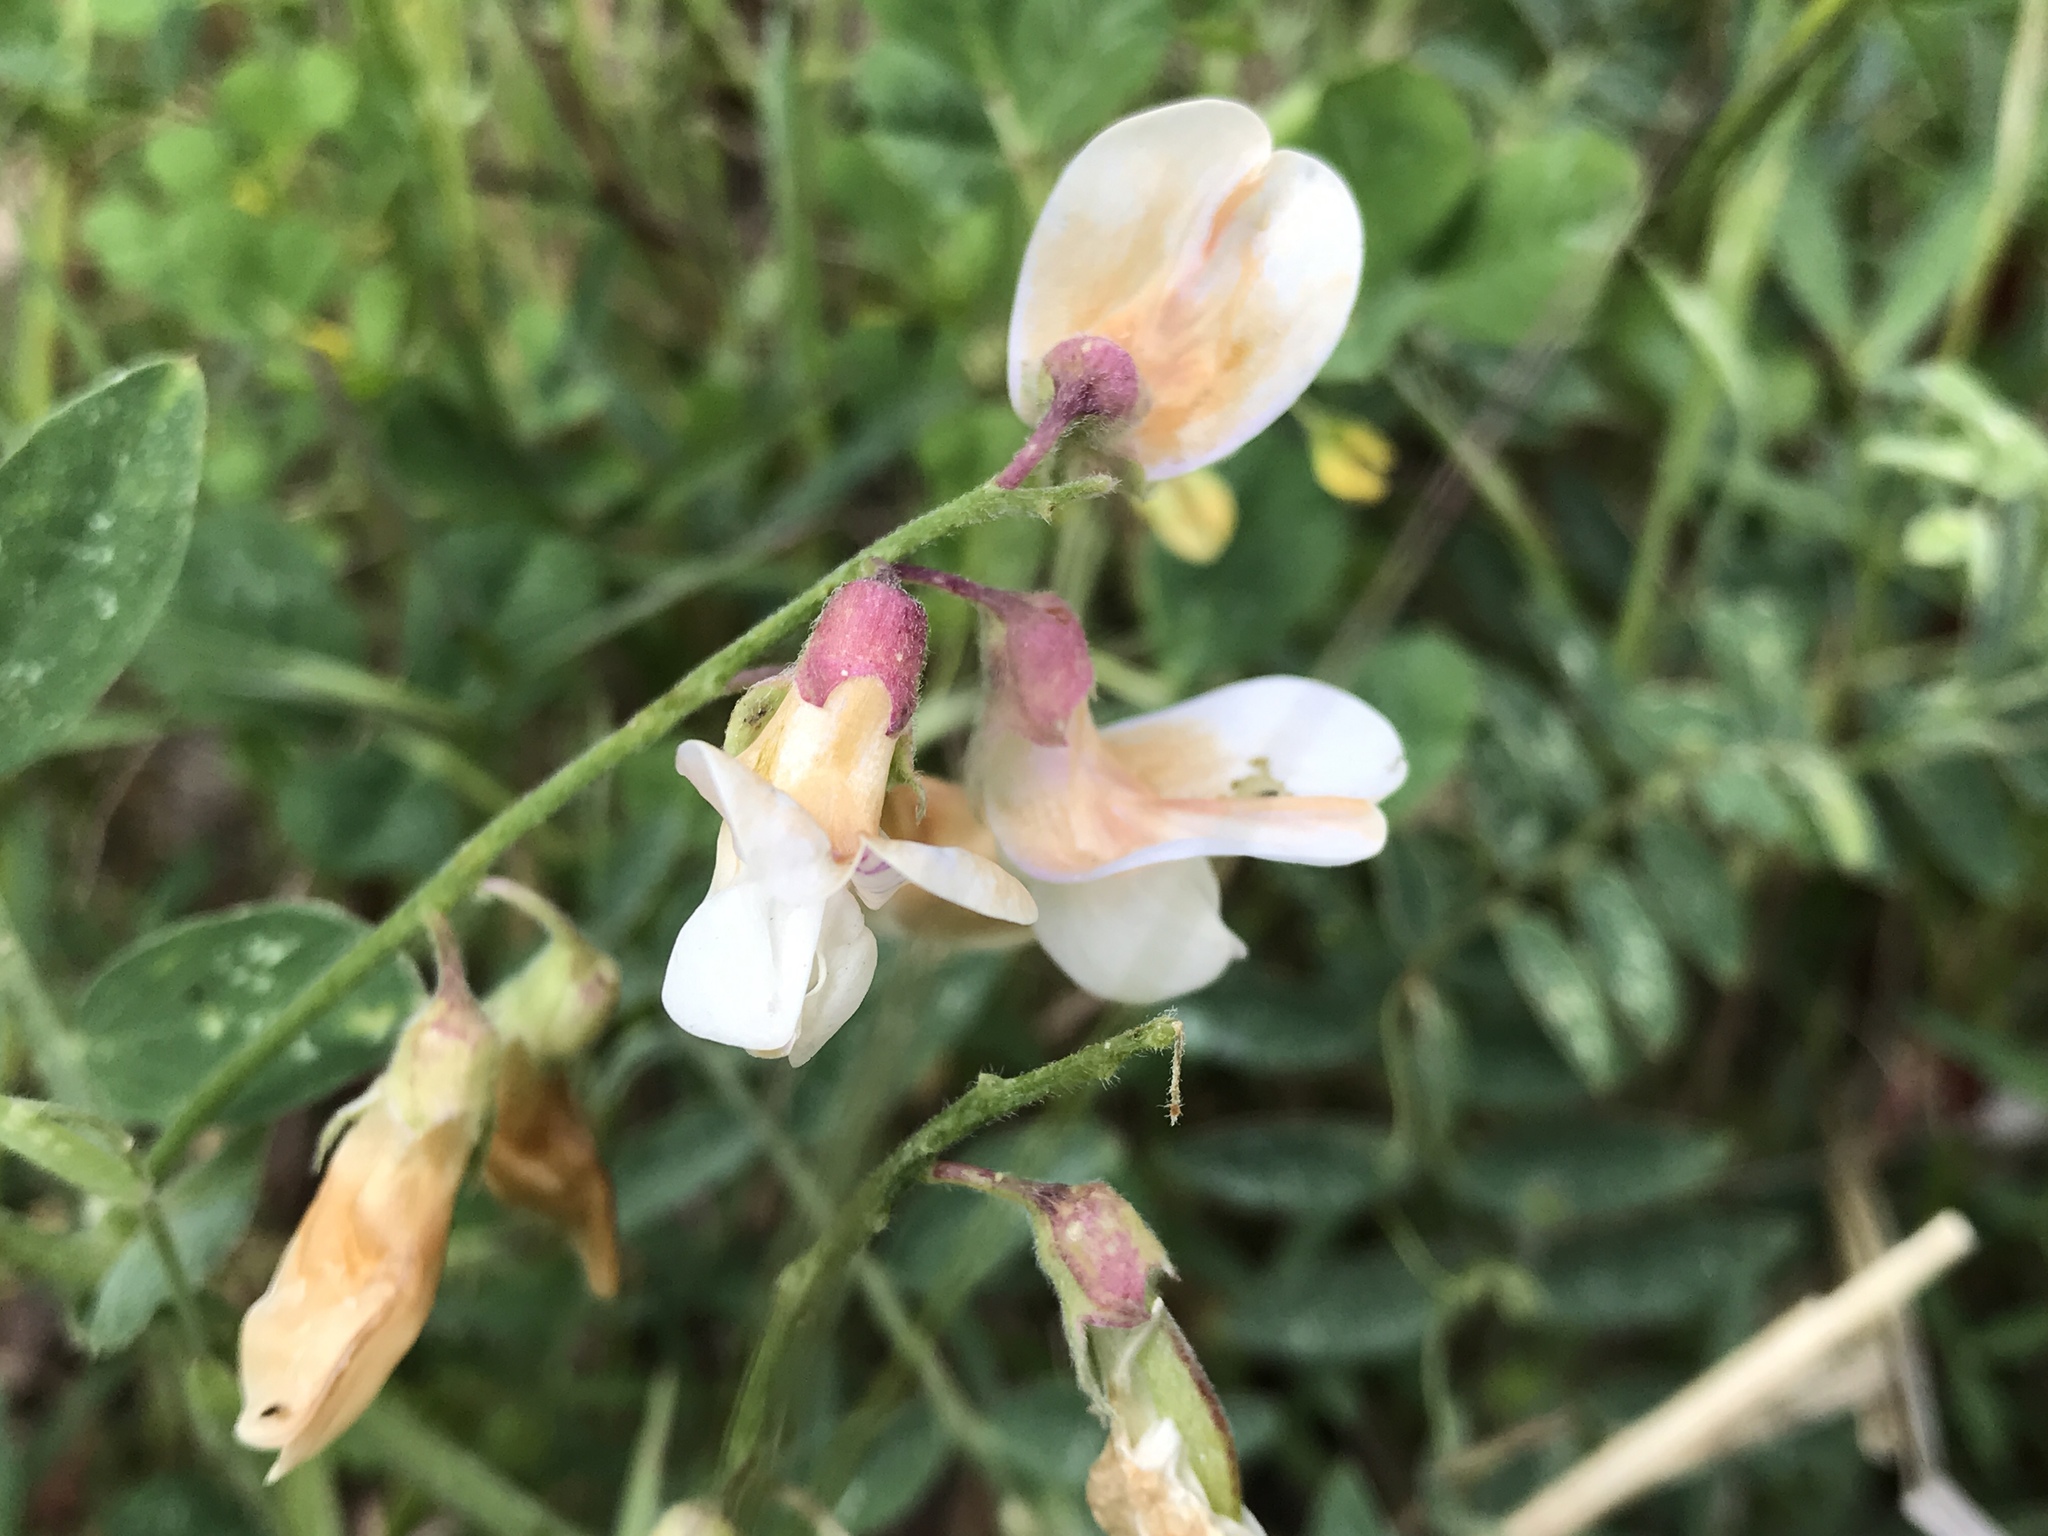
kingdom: Plantae
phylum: Tracheophyta
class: Magnoliopsida
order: Fabales
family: Fabaceae
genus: Lathyrus
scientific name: Lathyrus vestitus
